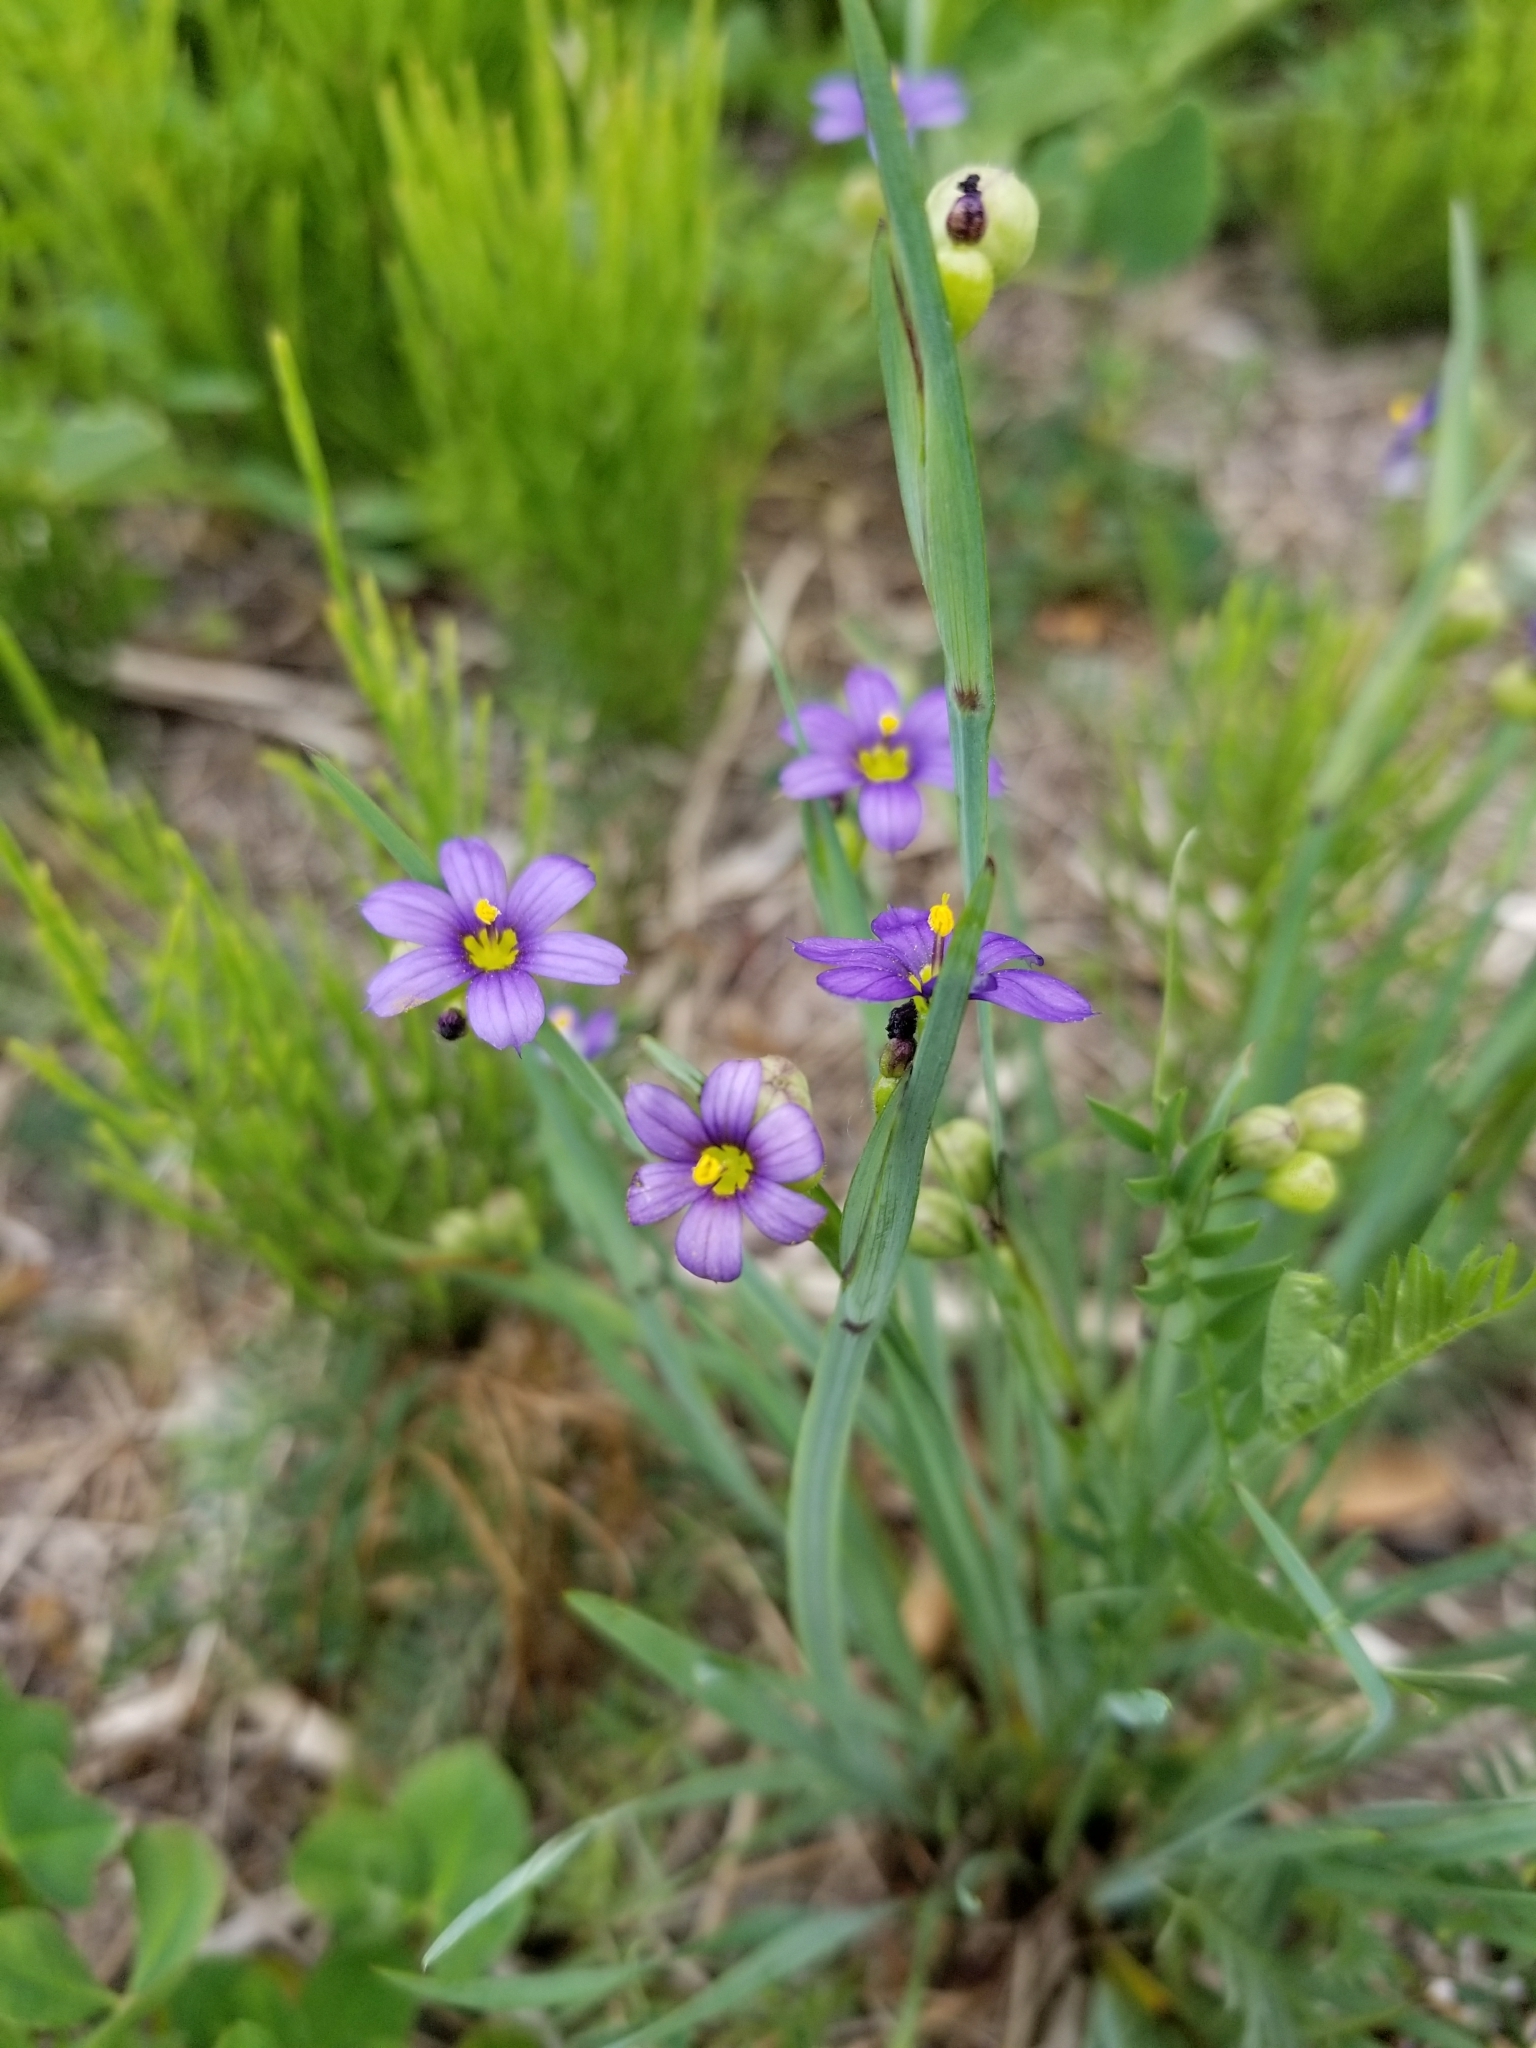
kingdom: Plantae
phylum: Tracheophyta
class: Liliopsida
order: Asparagales
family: Iridaceae
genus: Sisyrinchium
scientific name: Sisyrinchium montanum
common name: American blue-eyed-grass
